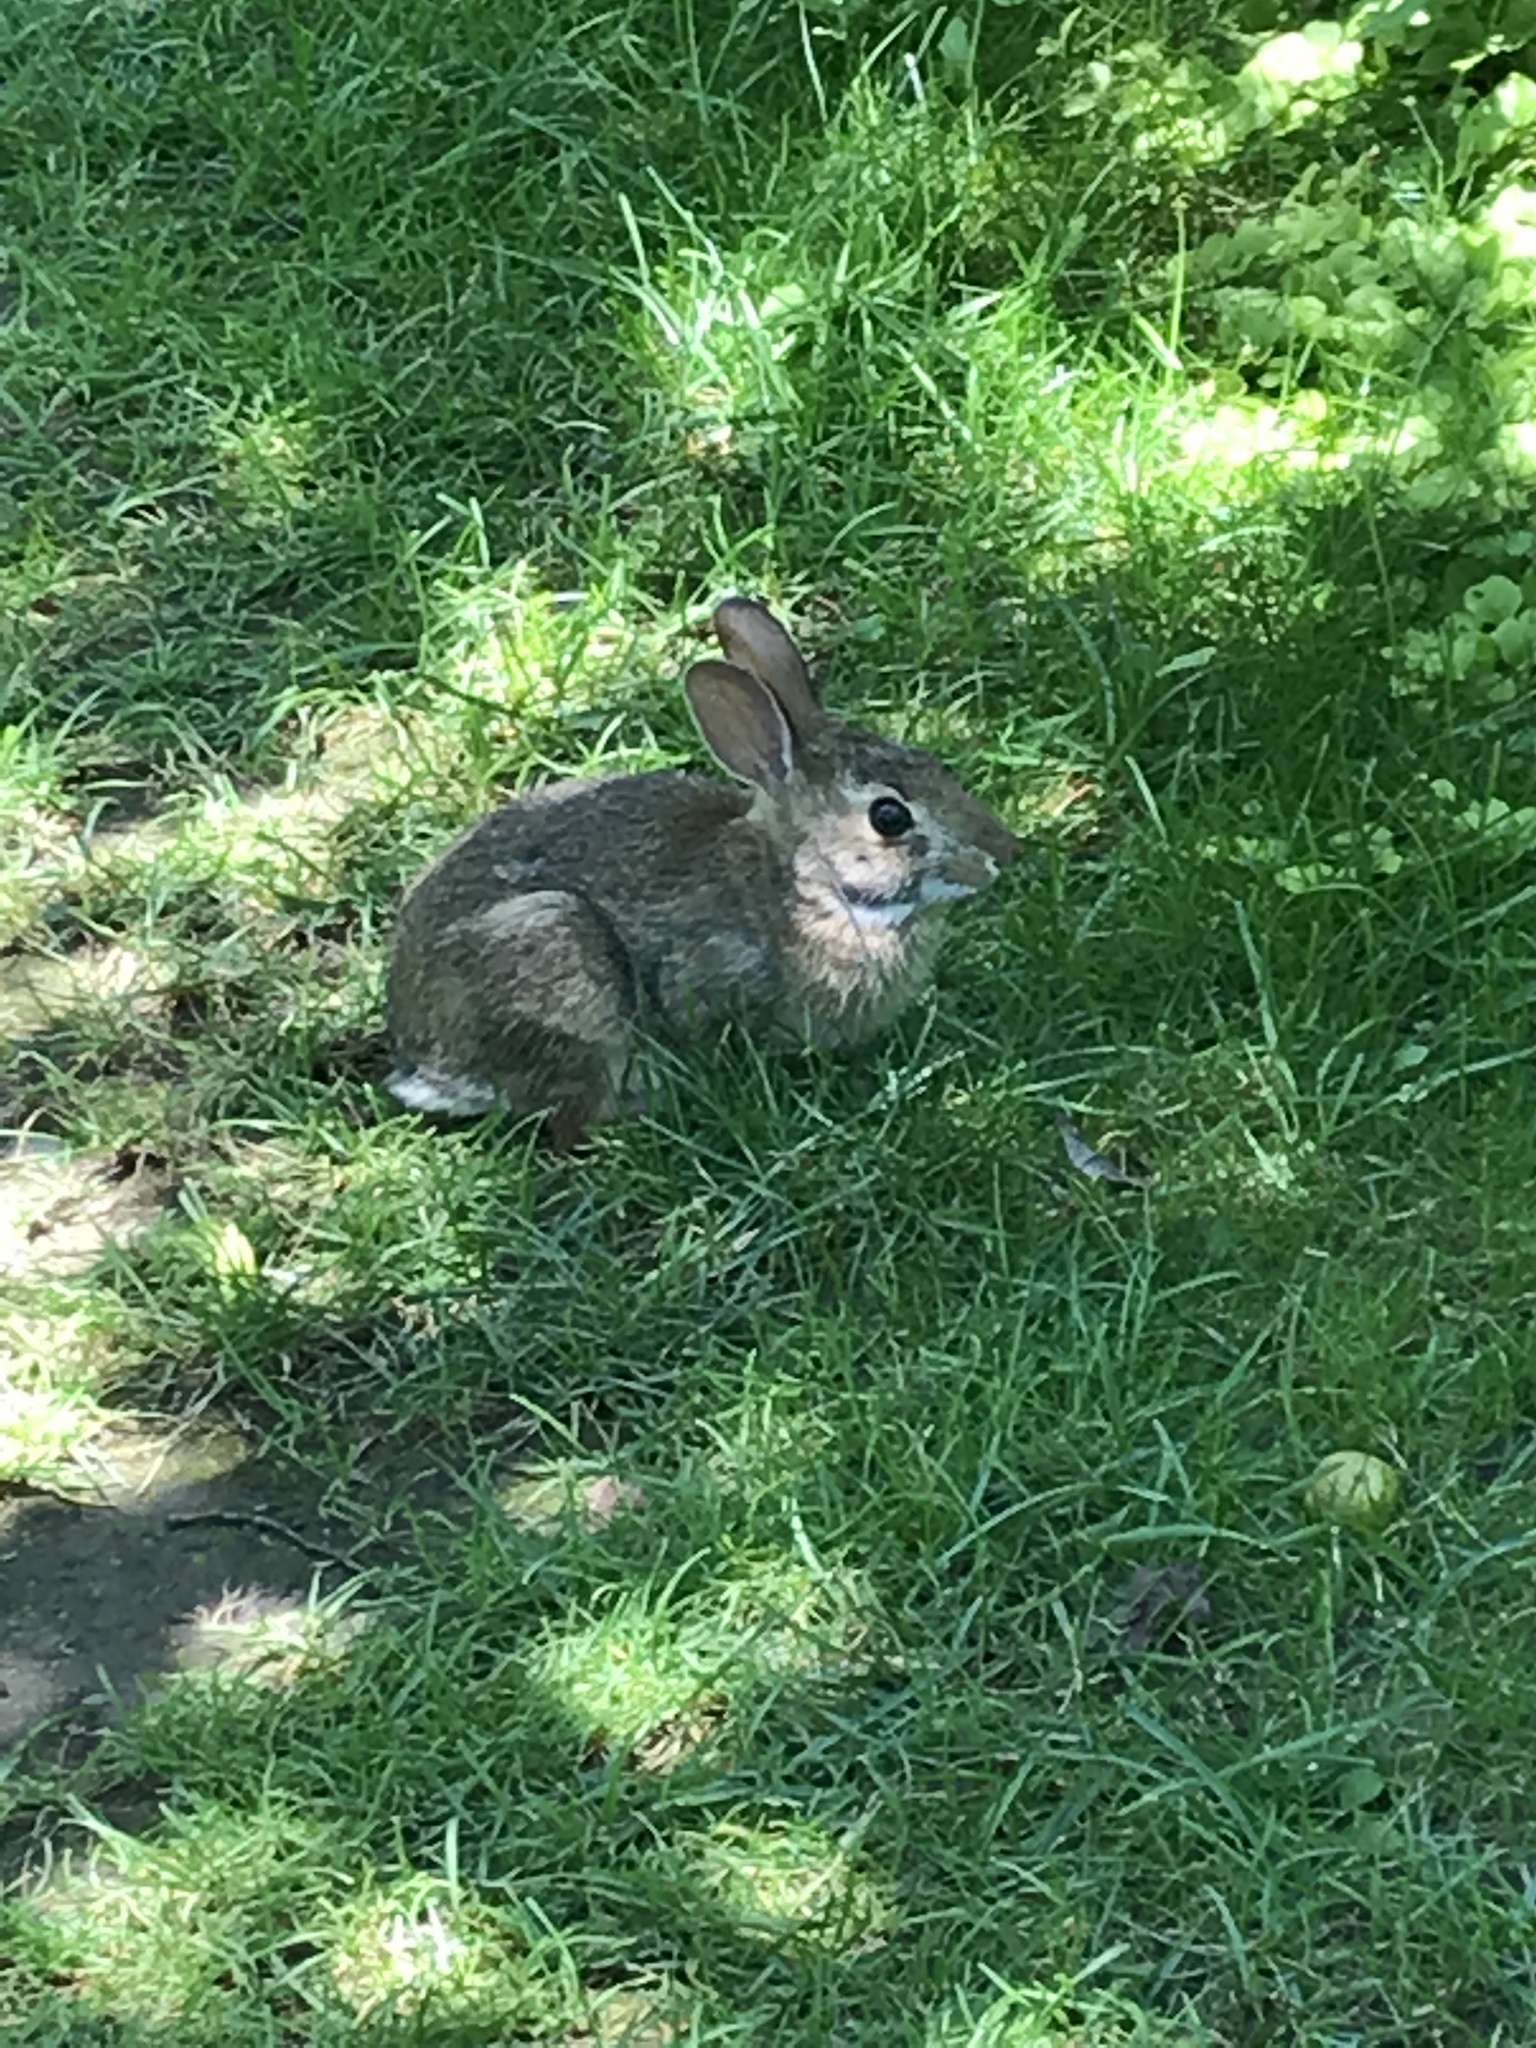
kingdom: Animalia
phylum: Chordata
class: Mammalia
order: Lagomorpha
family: Leporidae
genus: Sylvilagus
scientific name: Sylvilagus floridanus
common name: Eastern cottontail
